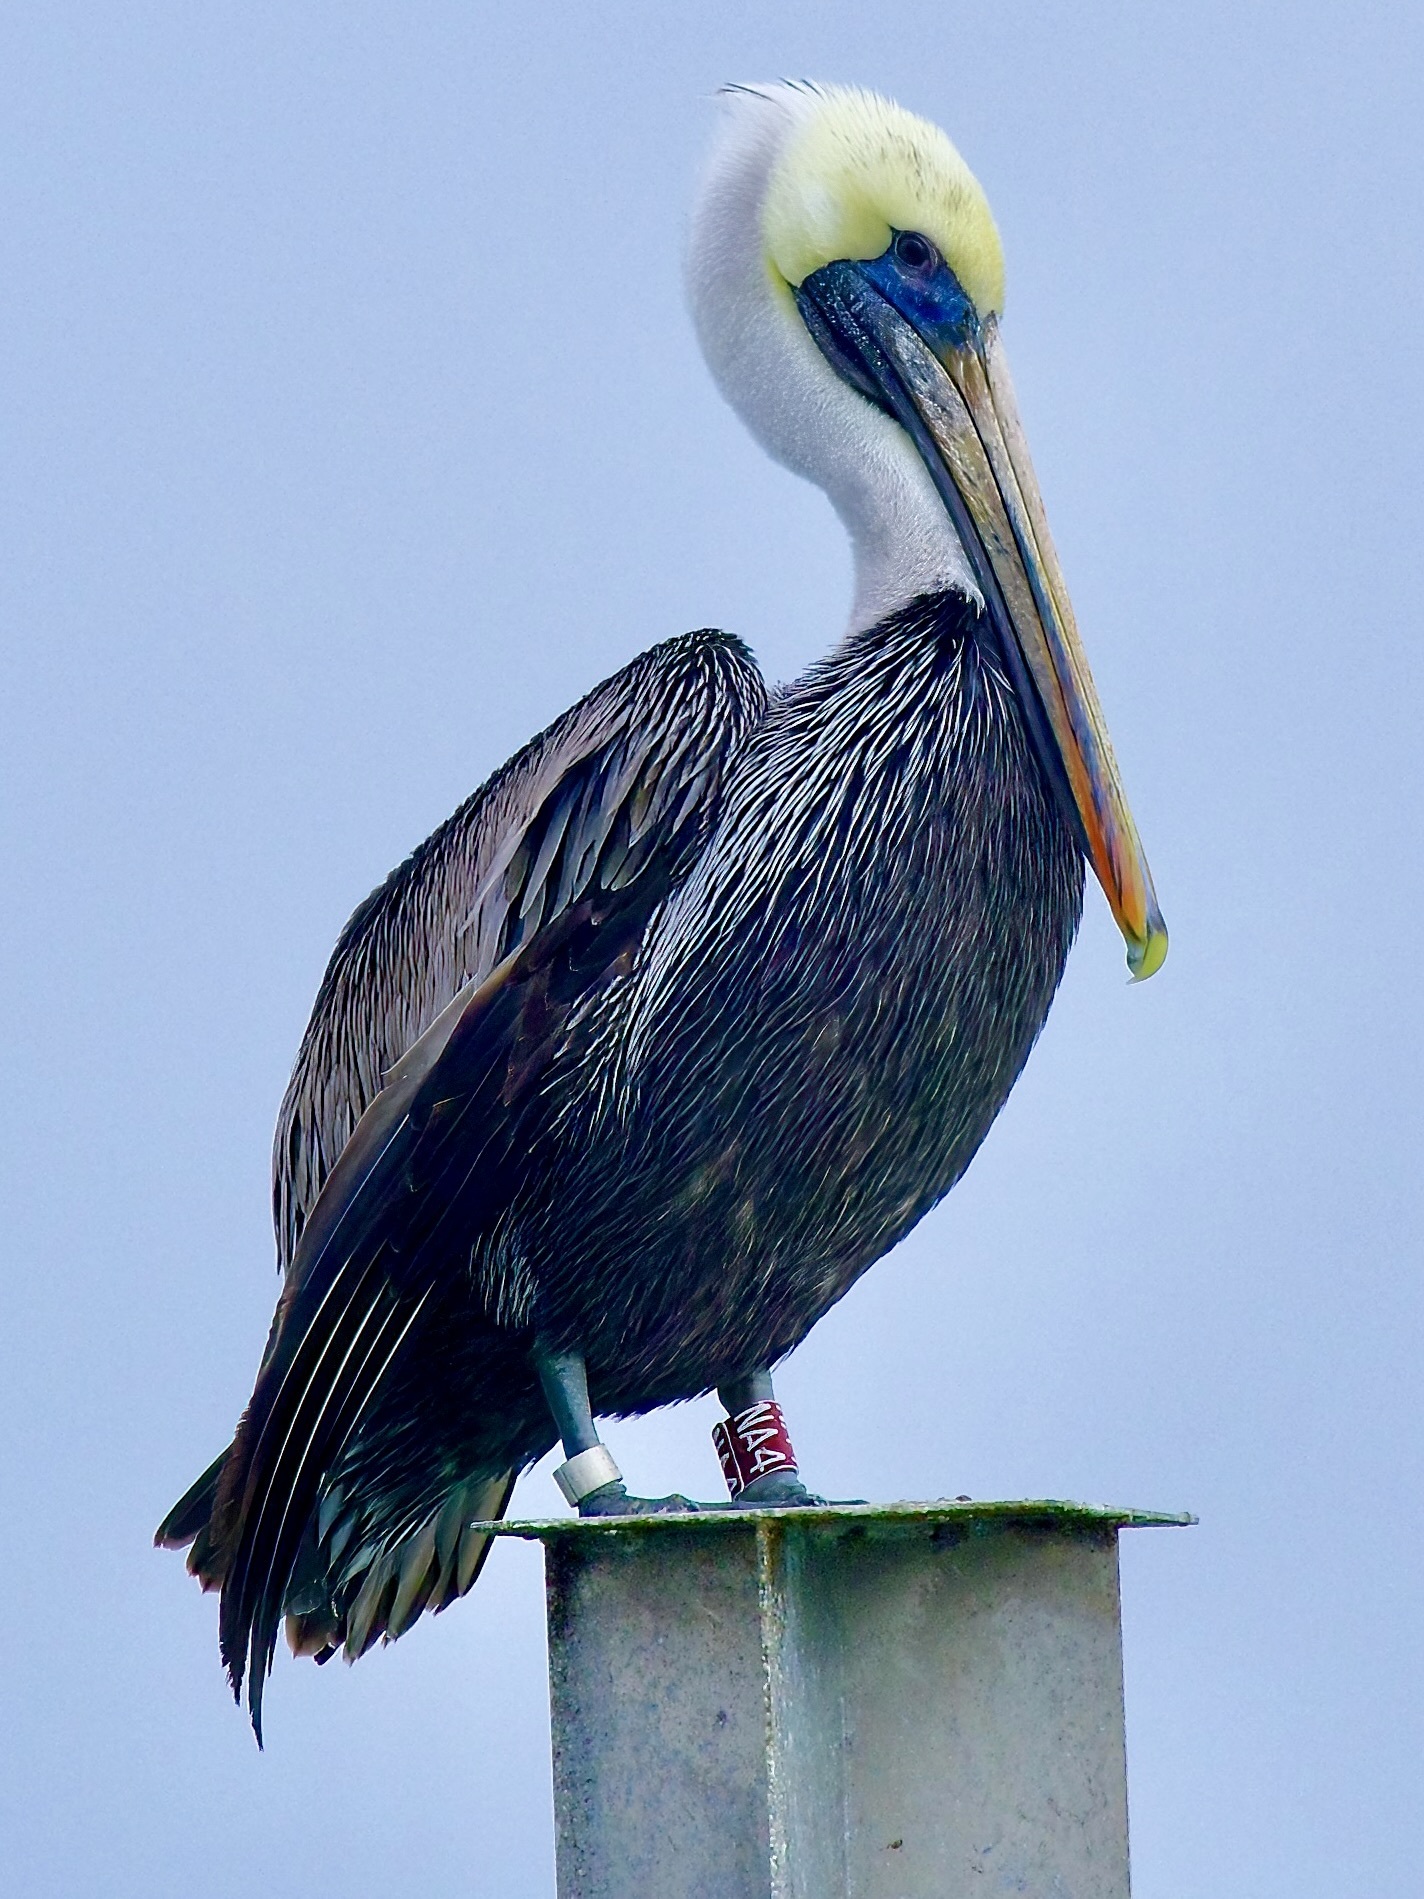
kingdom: Animalia
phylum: Chordata
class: Aves
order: Pelecaniformes
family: Pelecanidae
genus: Pelecanus
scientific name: Pelecanus occidentalis
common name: Brown pelican
